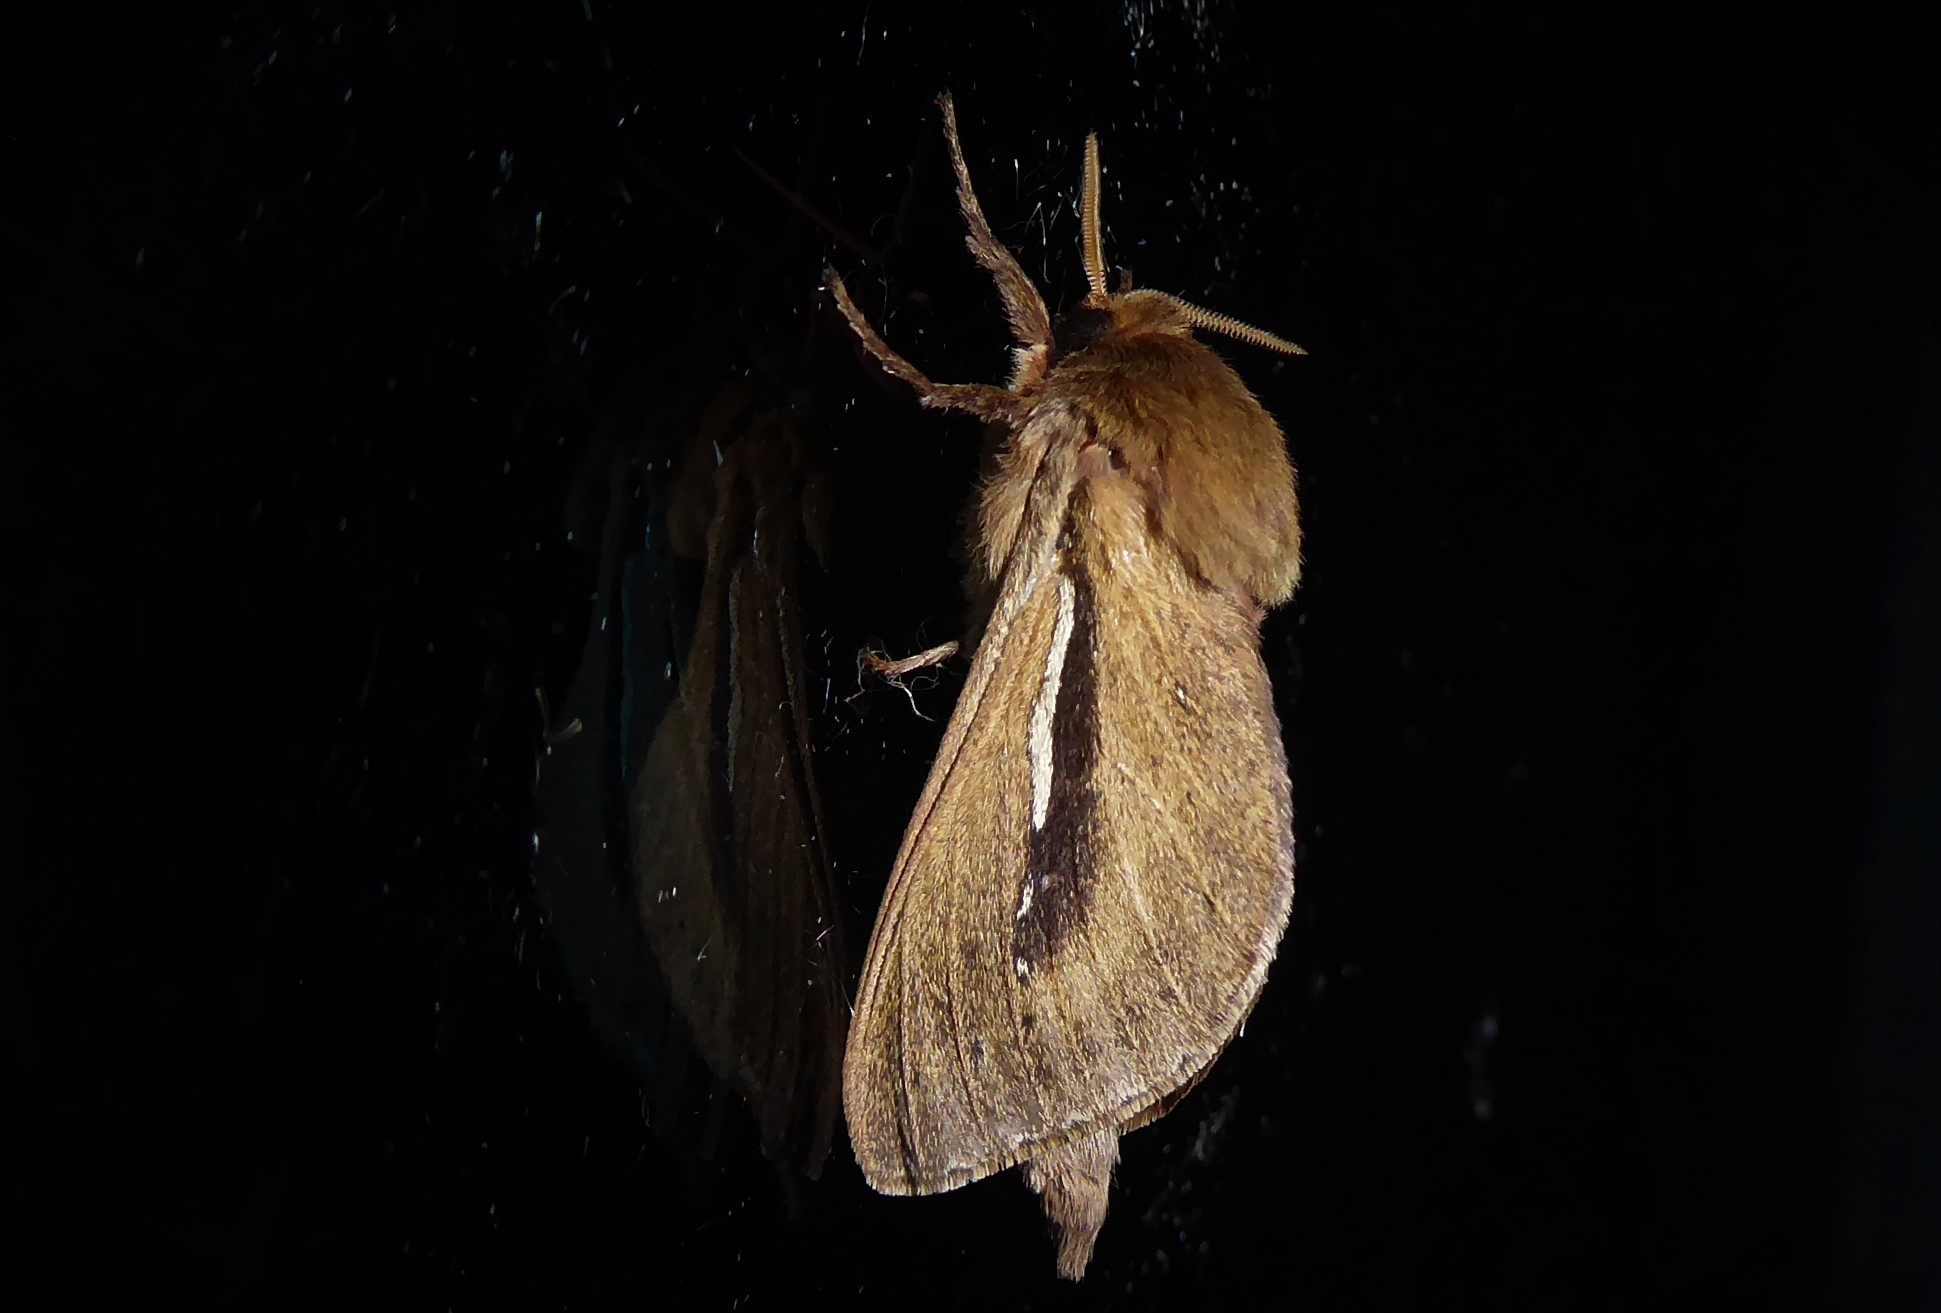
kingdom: Animalia
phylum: Arthropoda
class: Insecta
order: Lepidoptera
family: Hepialidae
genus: Wiseana
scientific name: Wiseana umbraculatus
